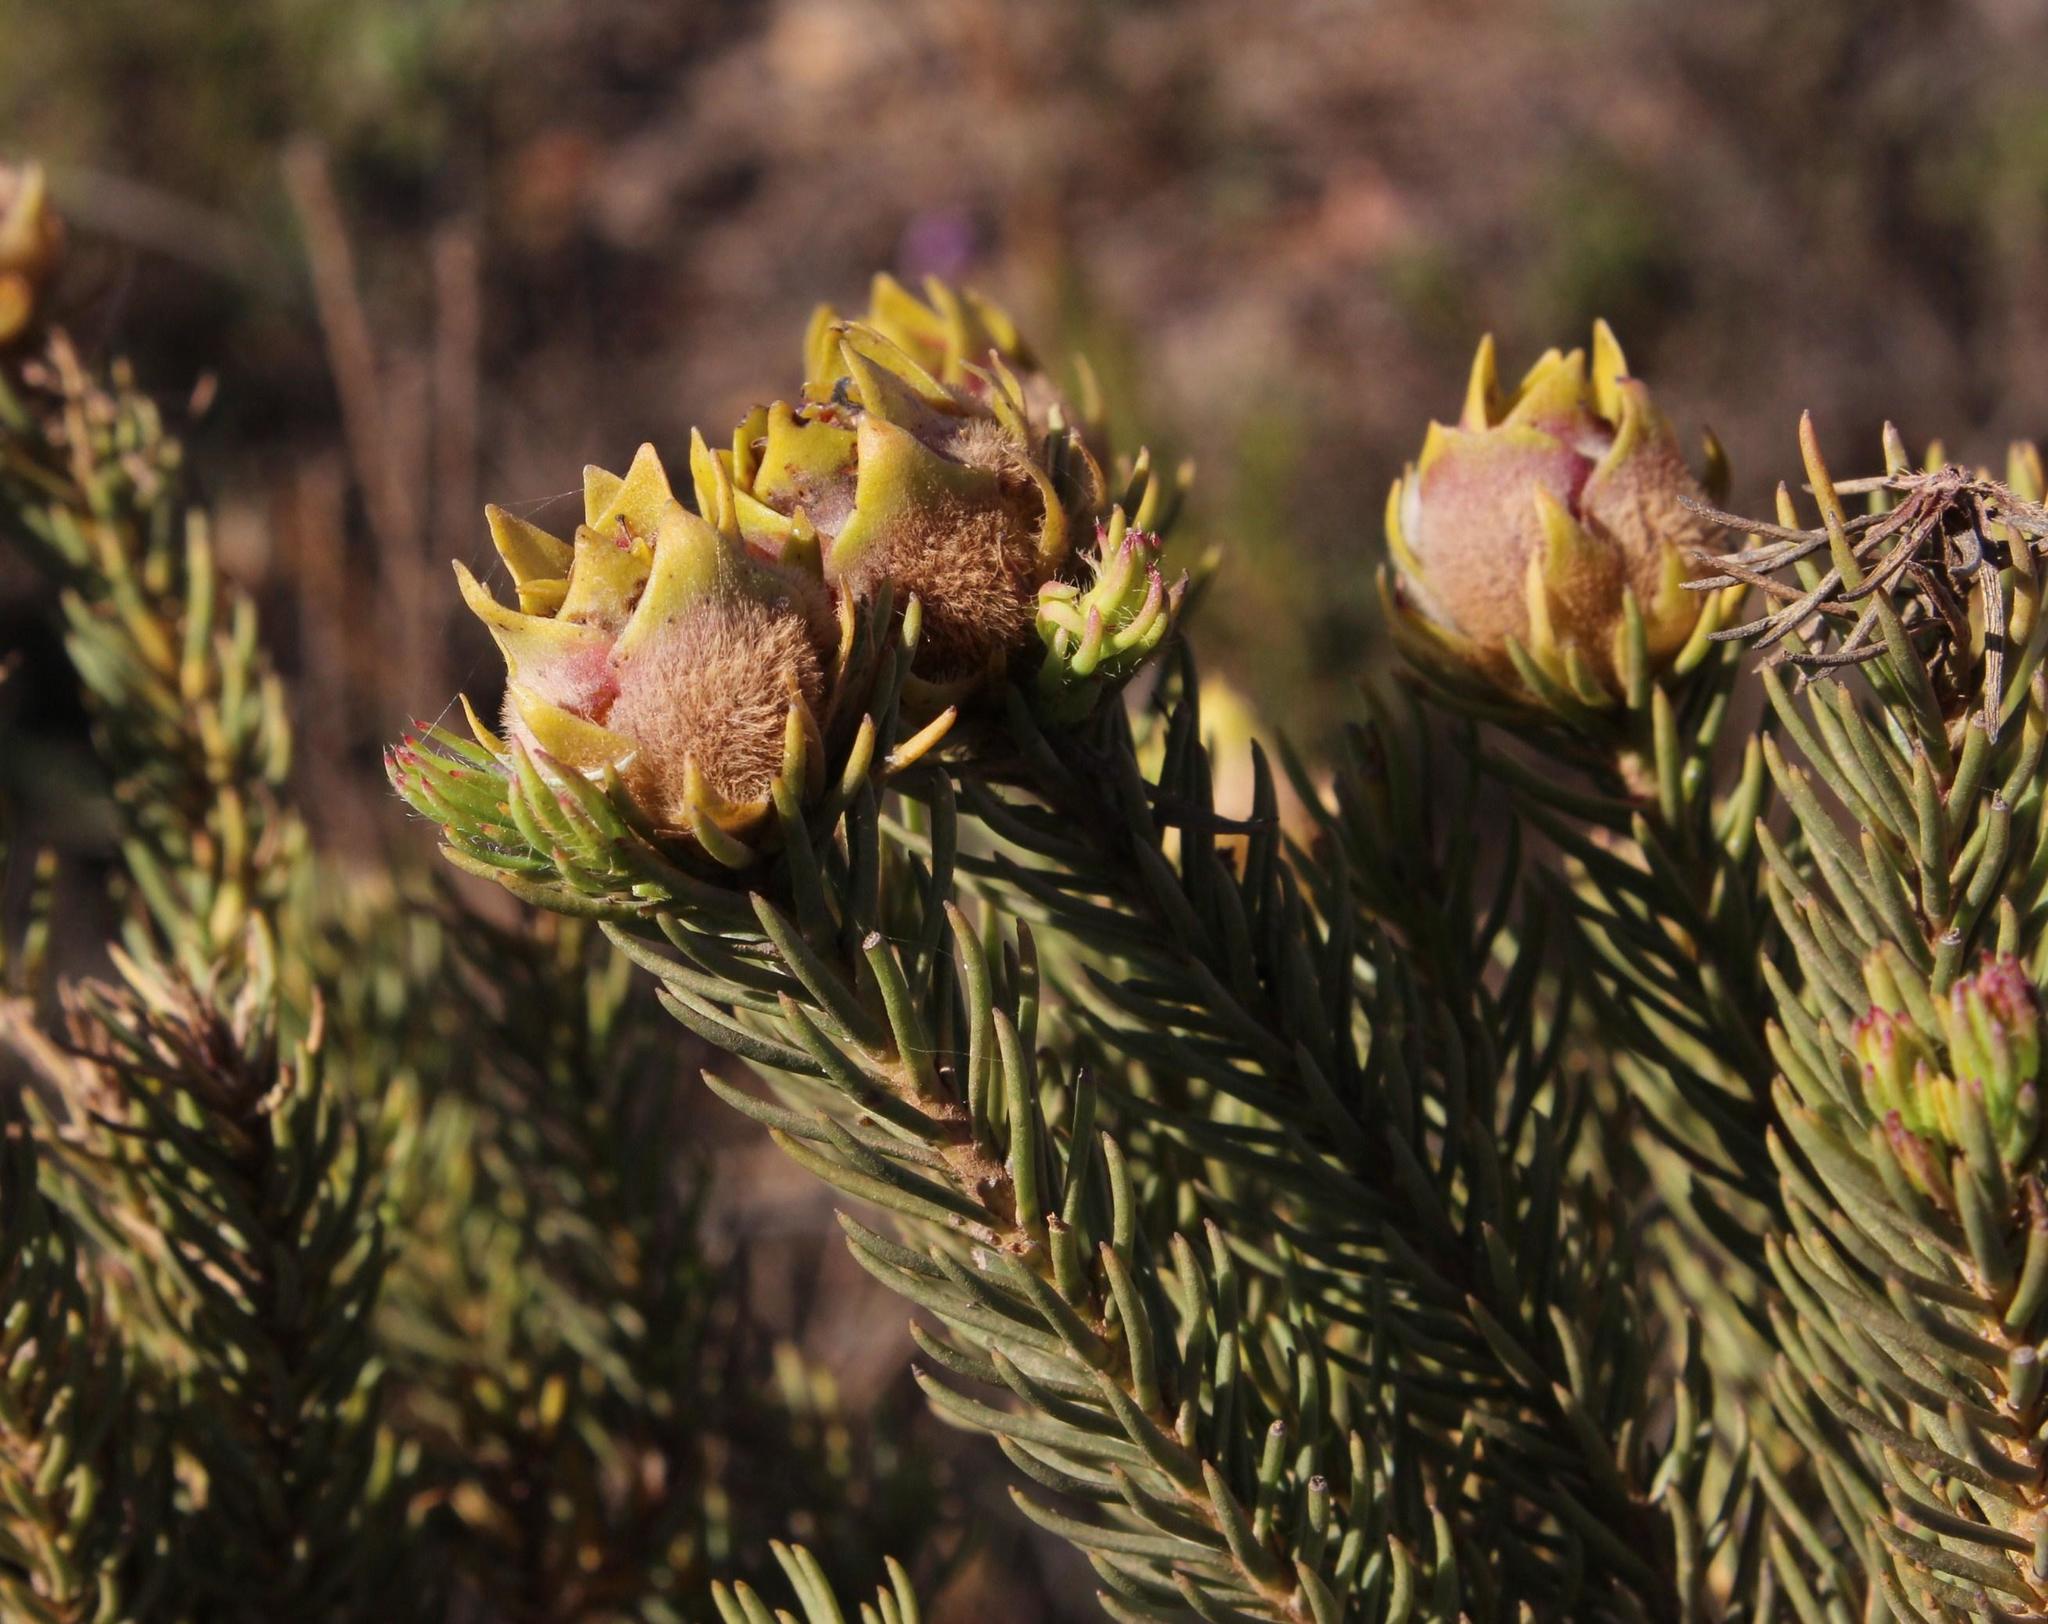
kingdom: Plantae
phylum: Tracheophyta
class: Magnoliopsida
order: Proteales
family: Proteaceae
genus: Leucadendron
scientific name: Leucadendron laxum
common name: Bredasdorp conebush
